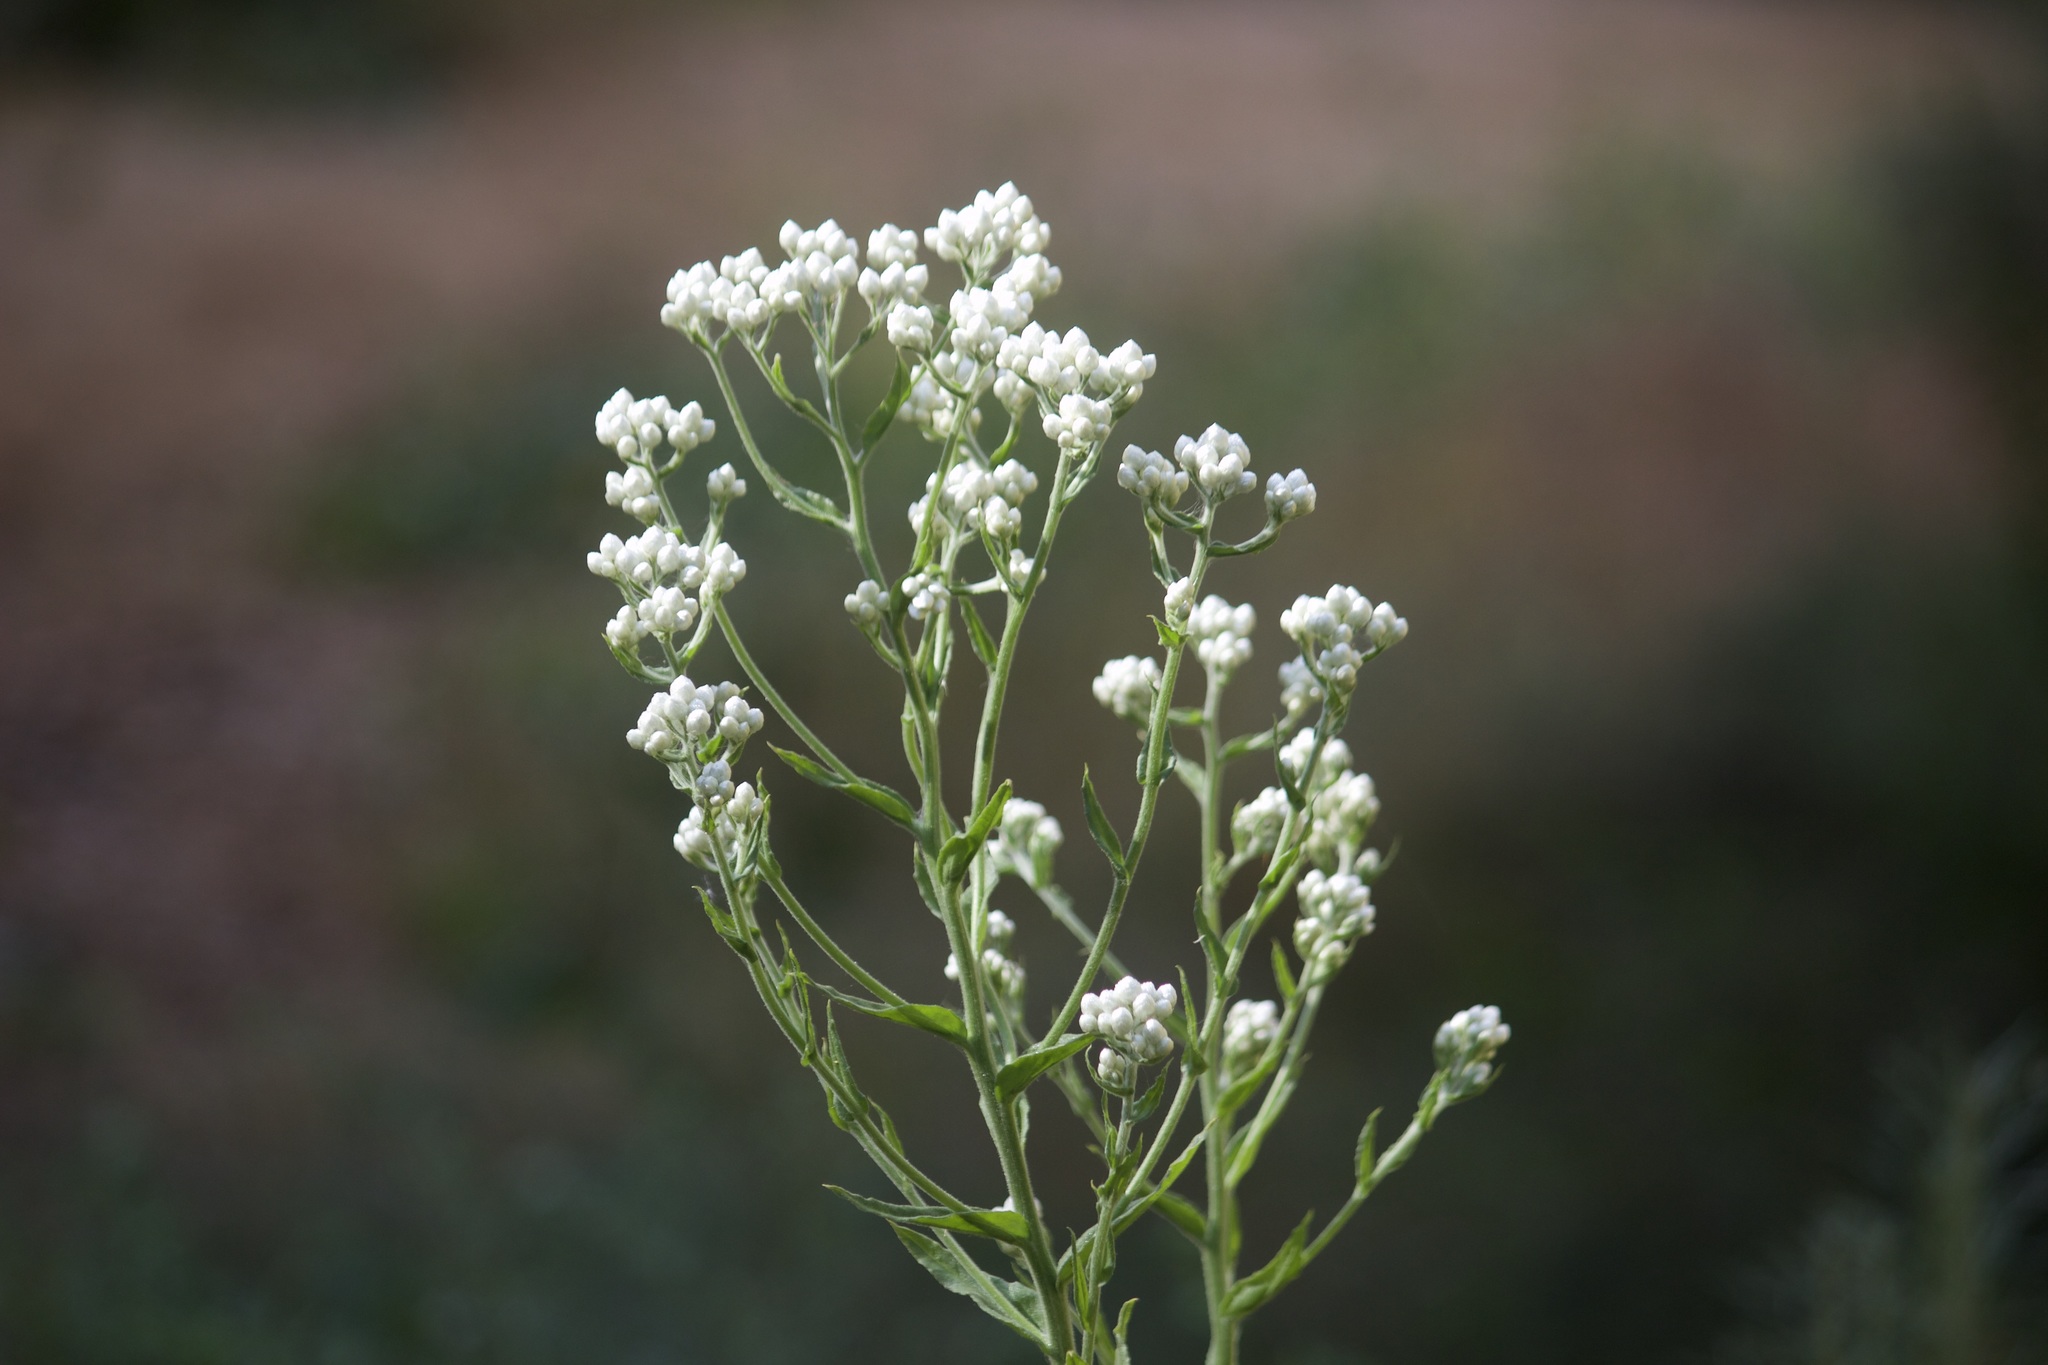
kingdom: Plantae
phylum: Tracheophyta
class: Magnoliopsida
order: Asterales
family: Asteraceae
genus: Pseudognaphalium
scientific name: Pseudognaphalium californicum
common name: California rabbit-tobacco
